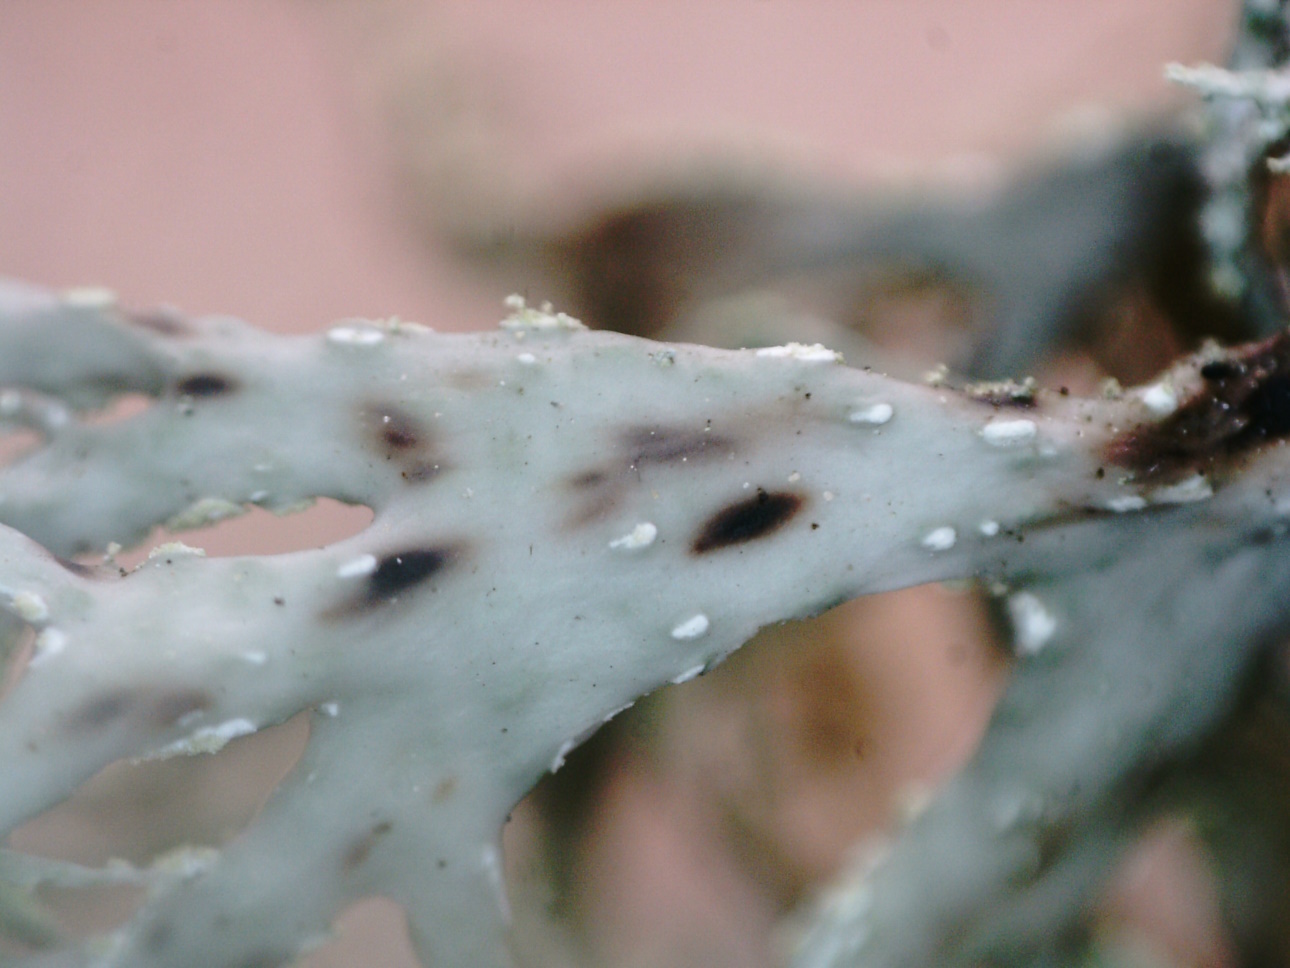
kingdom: Fungi
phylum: Ascomycota
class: Lecanoromycetes
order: Lecanorales
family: Ramalinaceae
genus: Ramalina
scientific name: Ramalina subfarinacea
